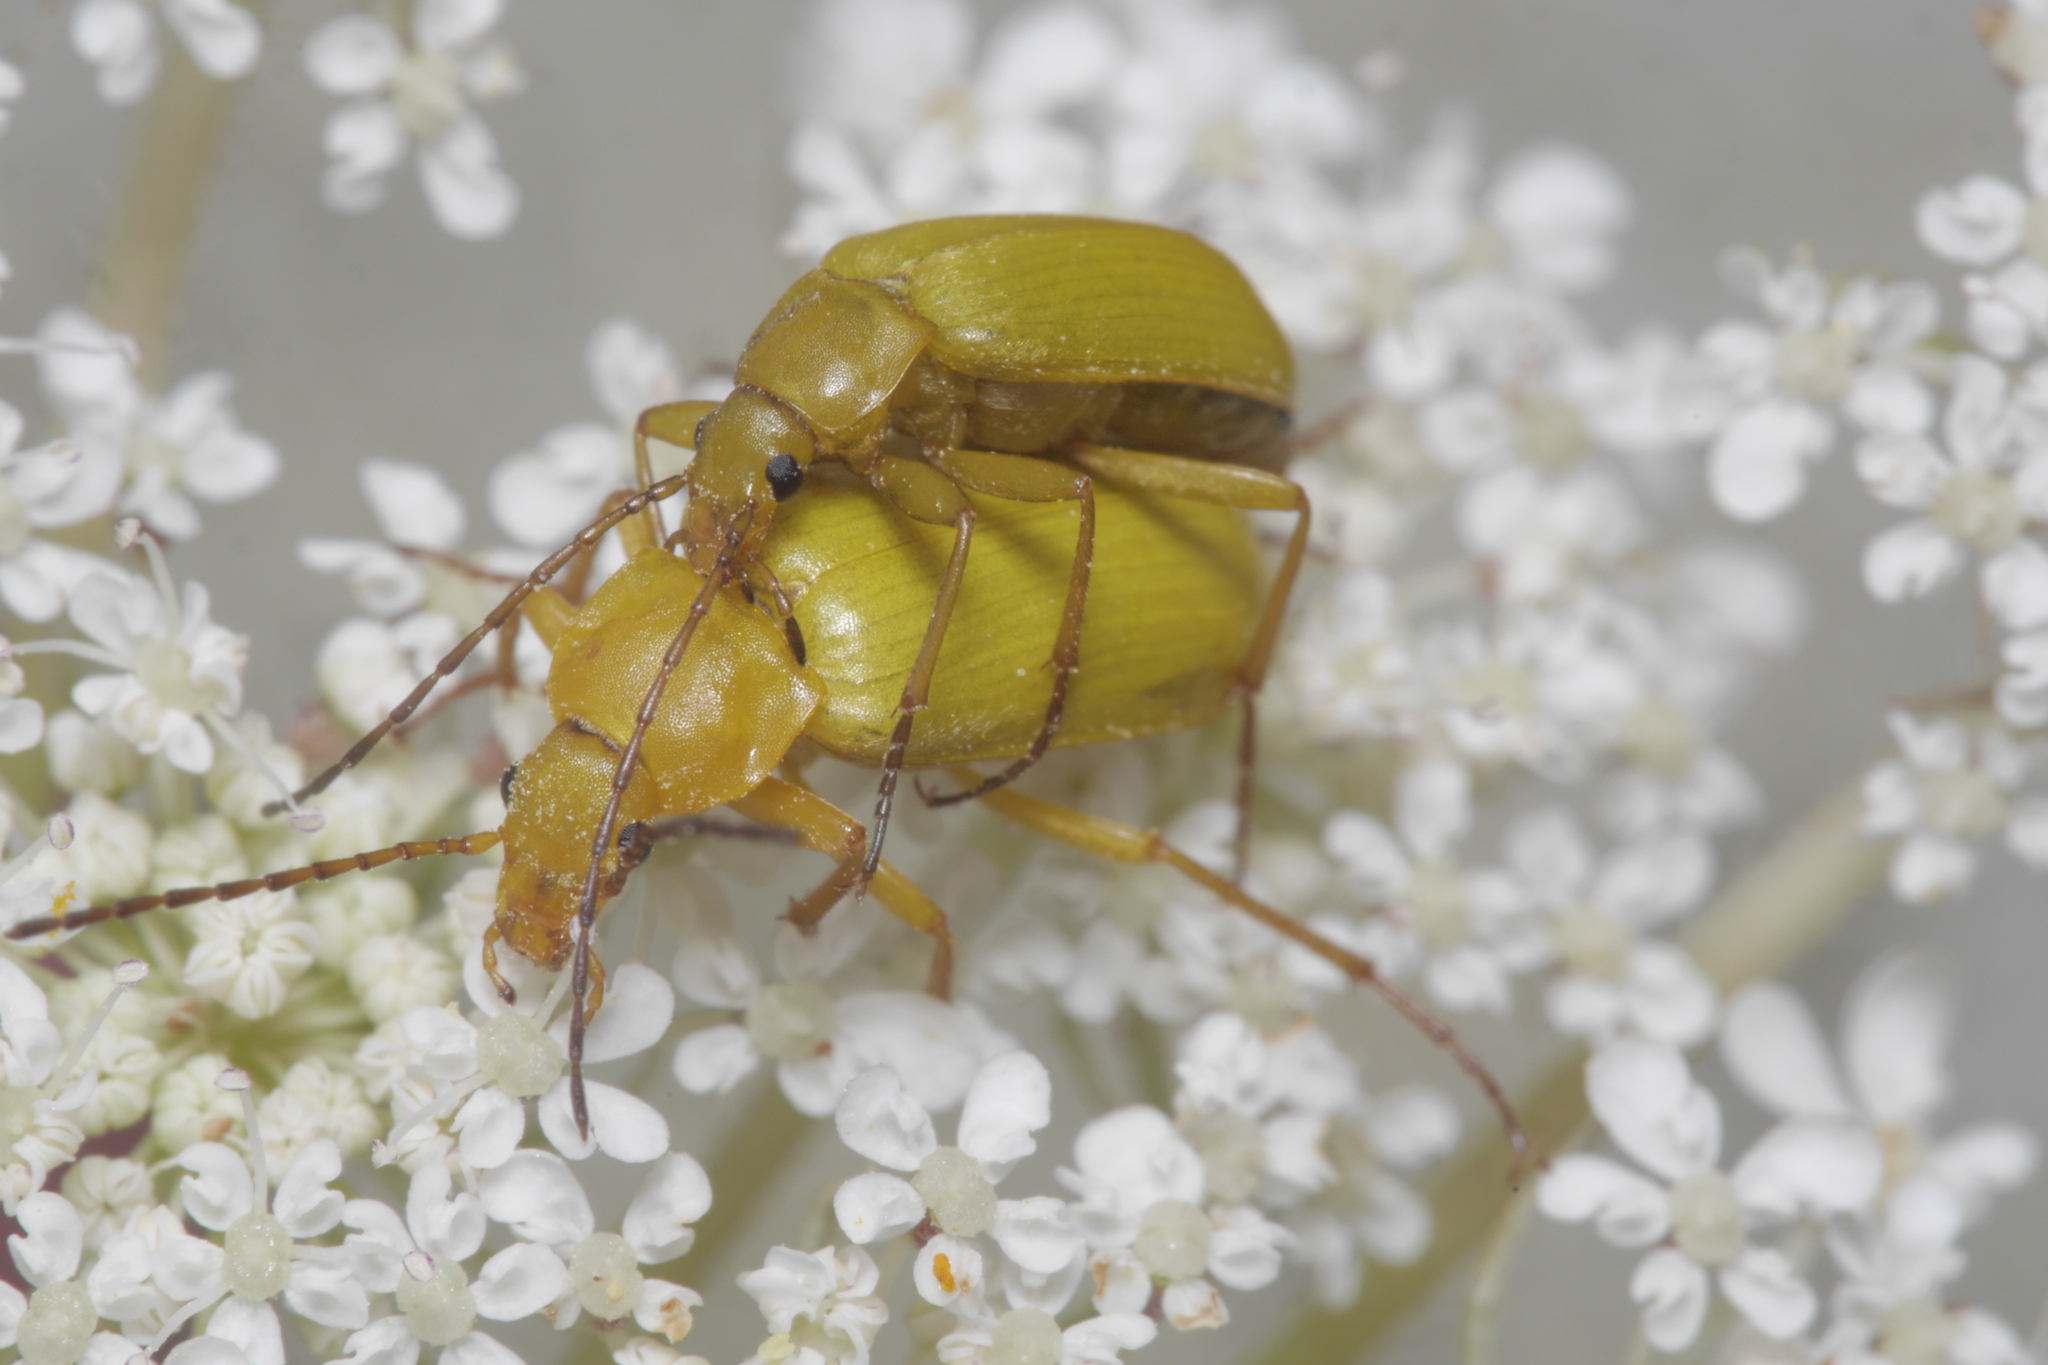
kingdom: Animalia
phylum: Arthropoda
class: Insecta
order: Coleoptera
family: Tenebrionidae
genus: Cteniopus
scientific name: Cteniopus sulphureus
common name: Sulphur beetle
